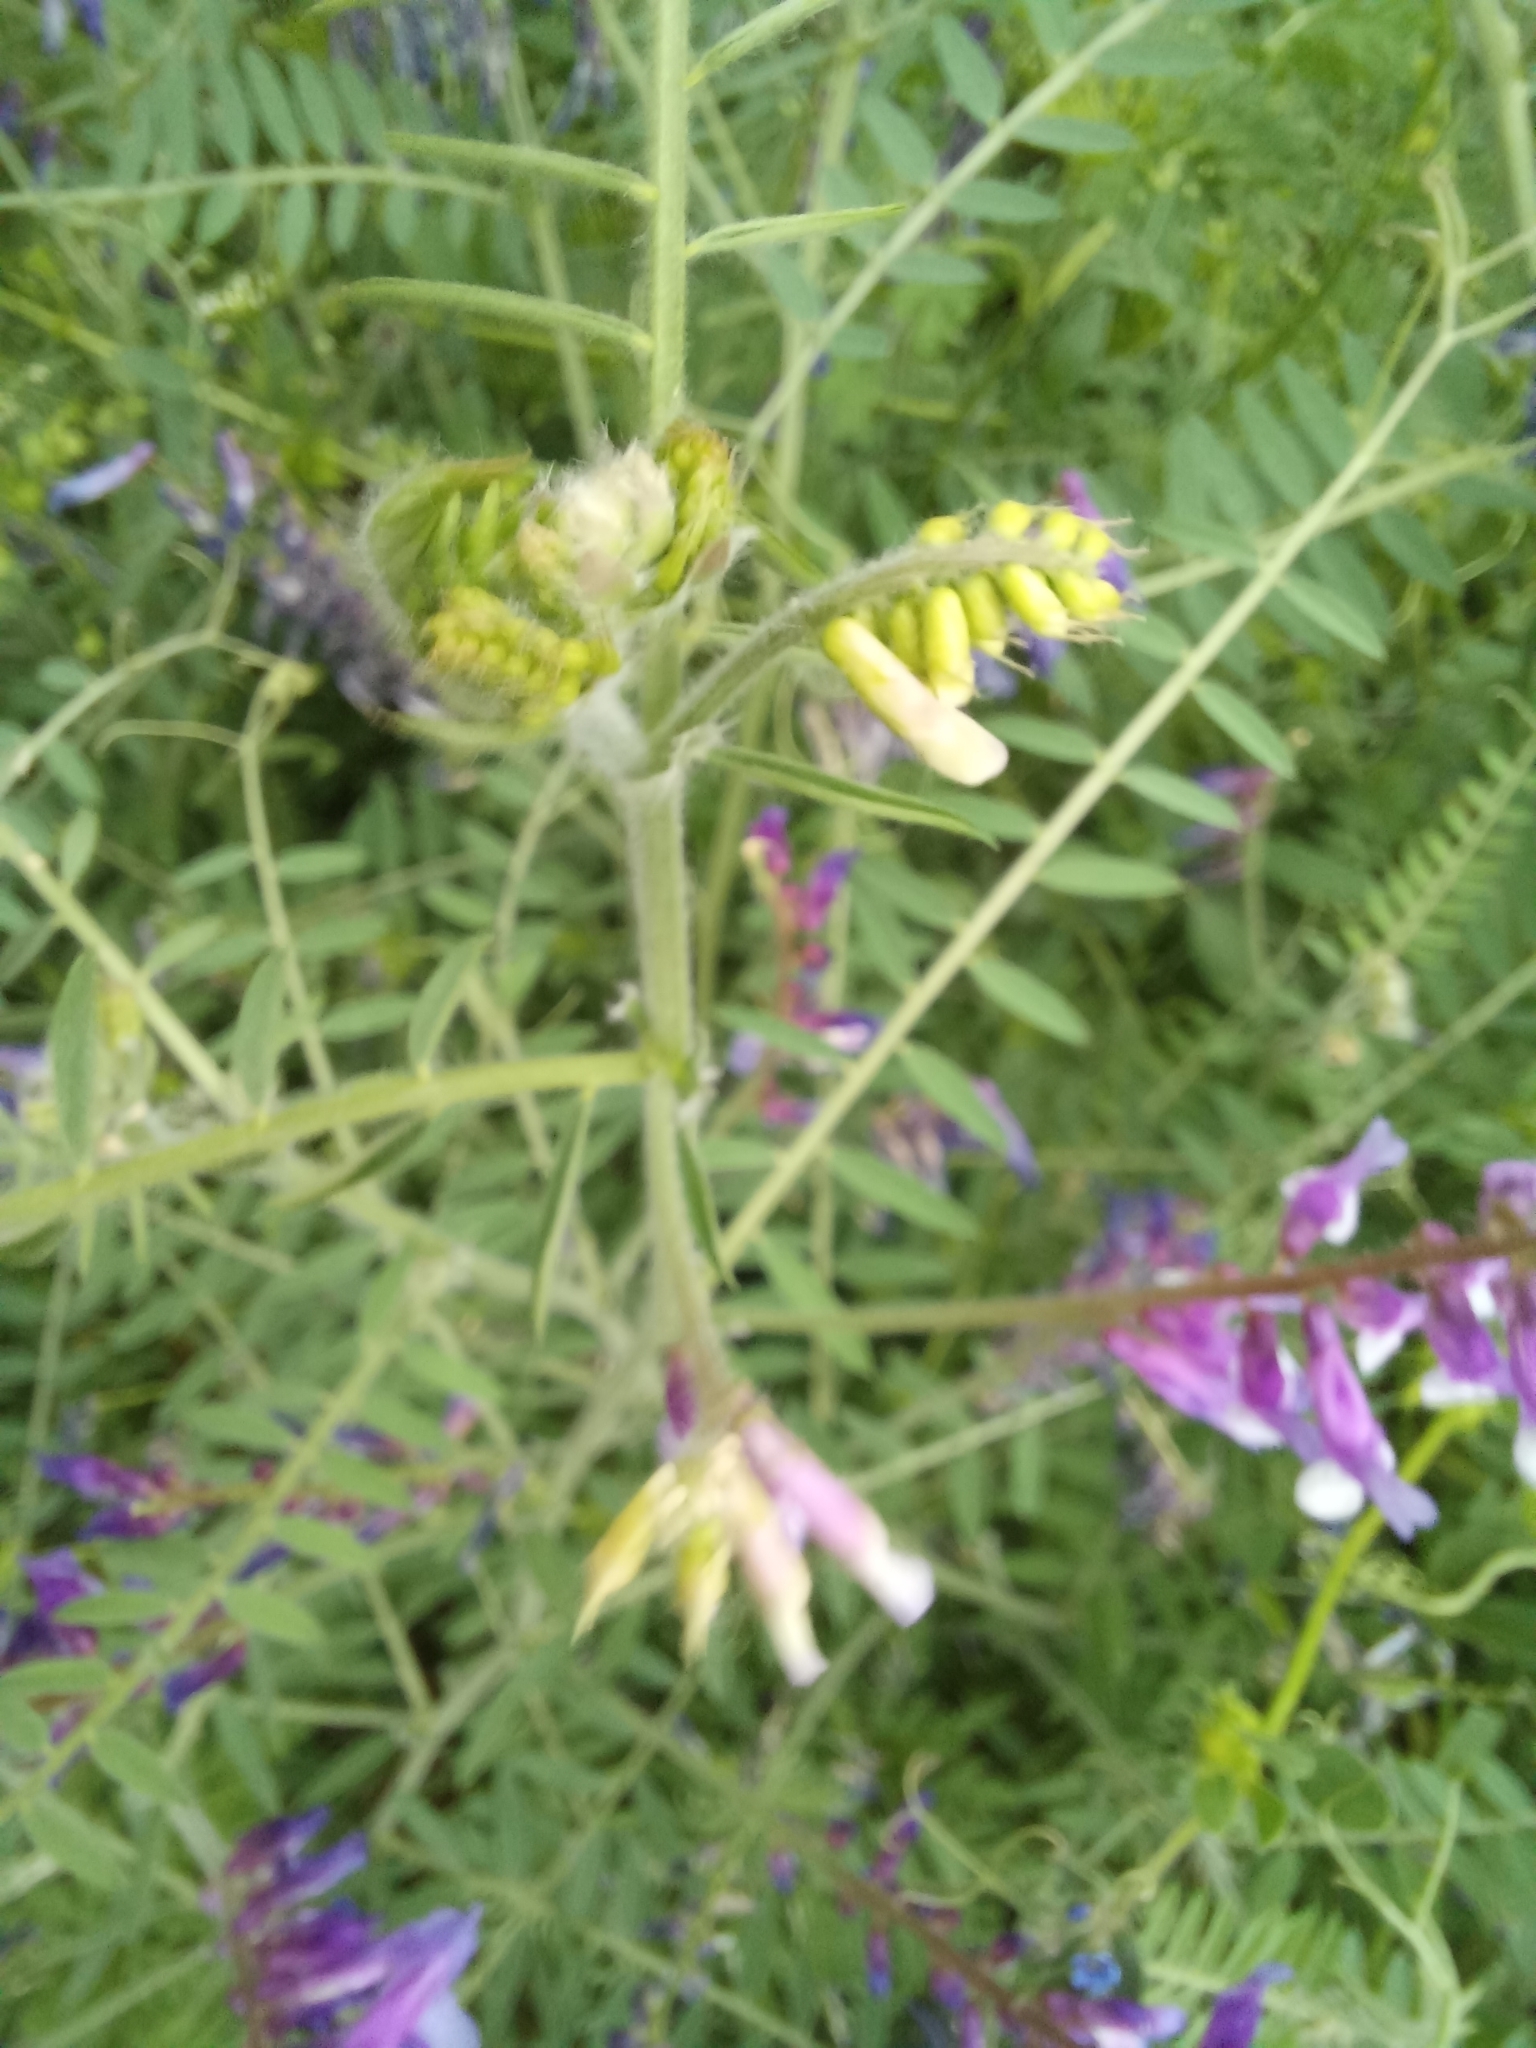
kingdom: Plantae
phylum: Tracheophyta
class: Magnoliopsida
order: Fabales
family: Fabaceae
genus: Vicia
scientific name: Vicia villosa
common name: Fodder vetch
